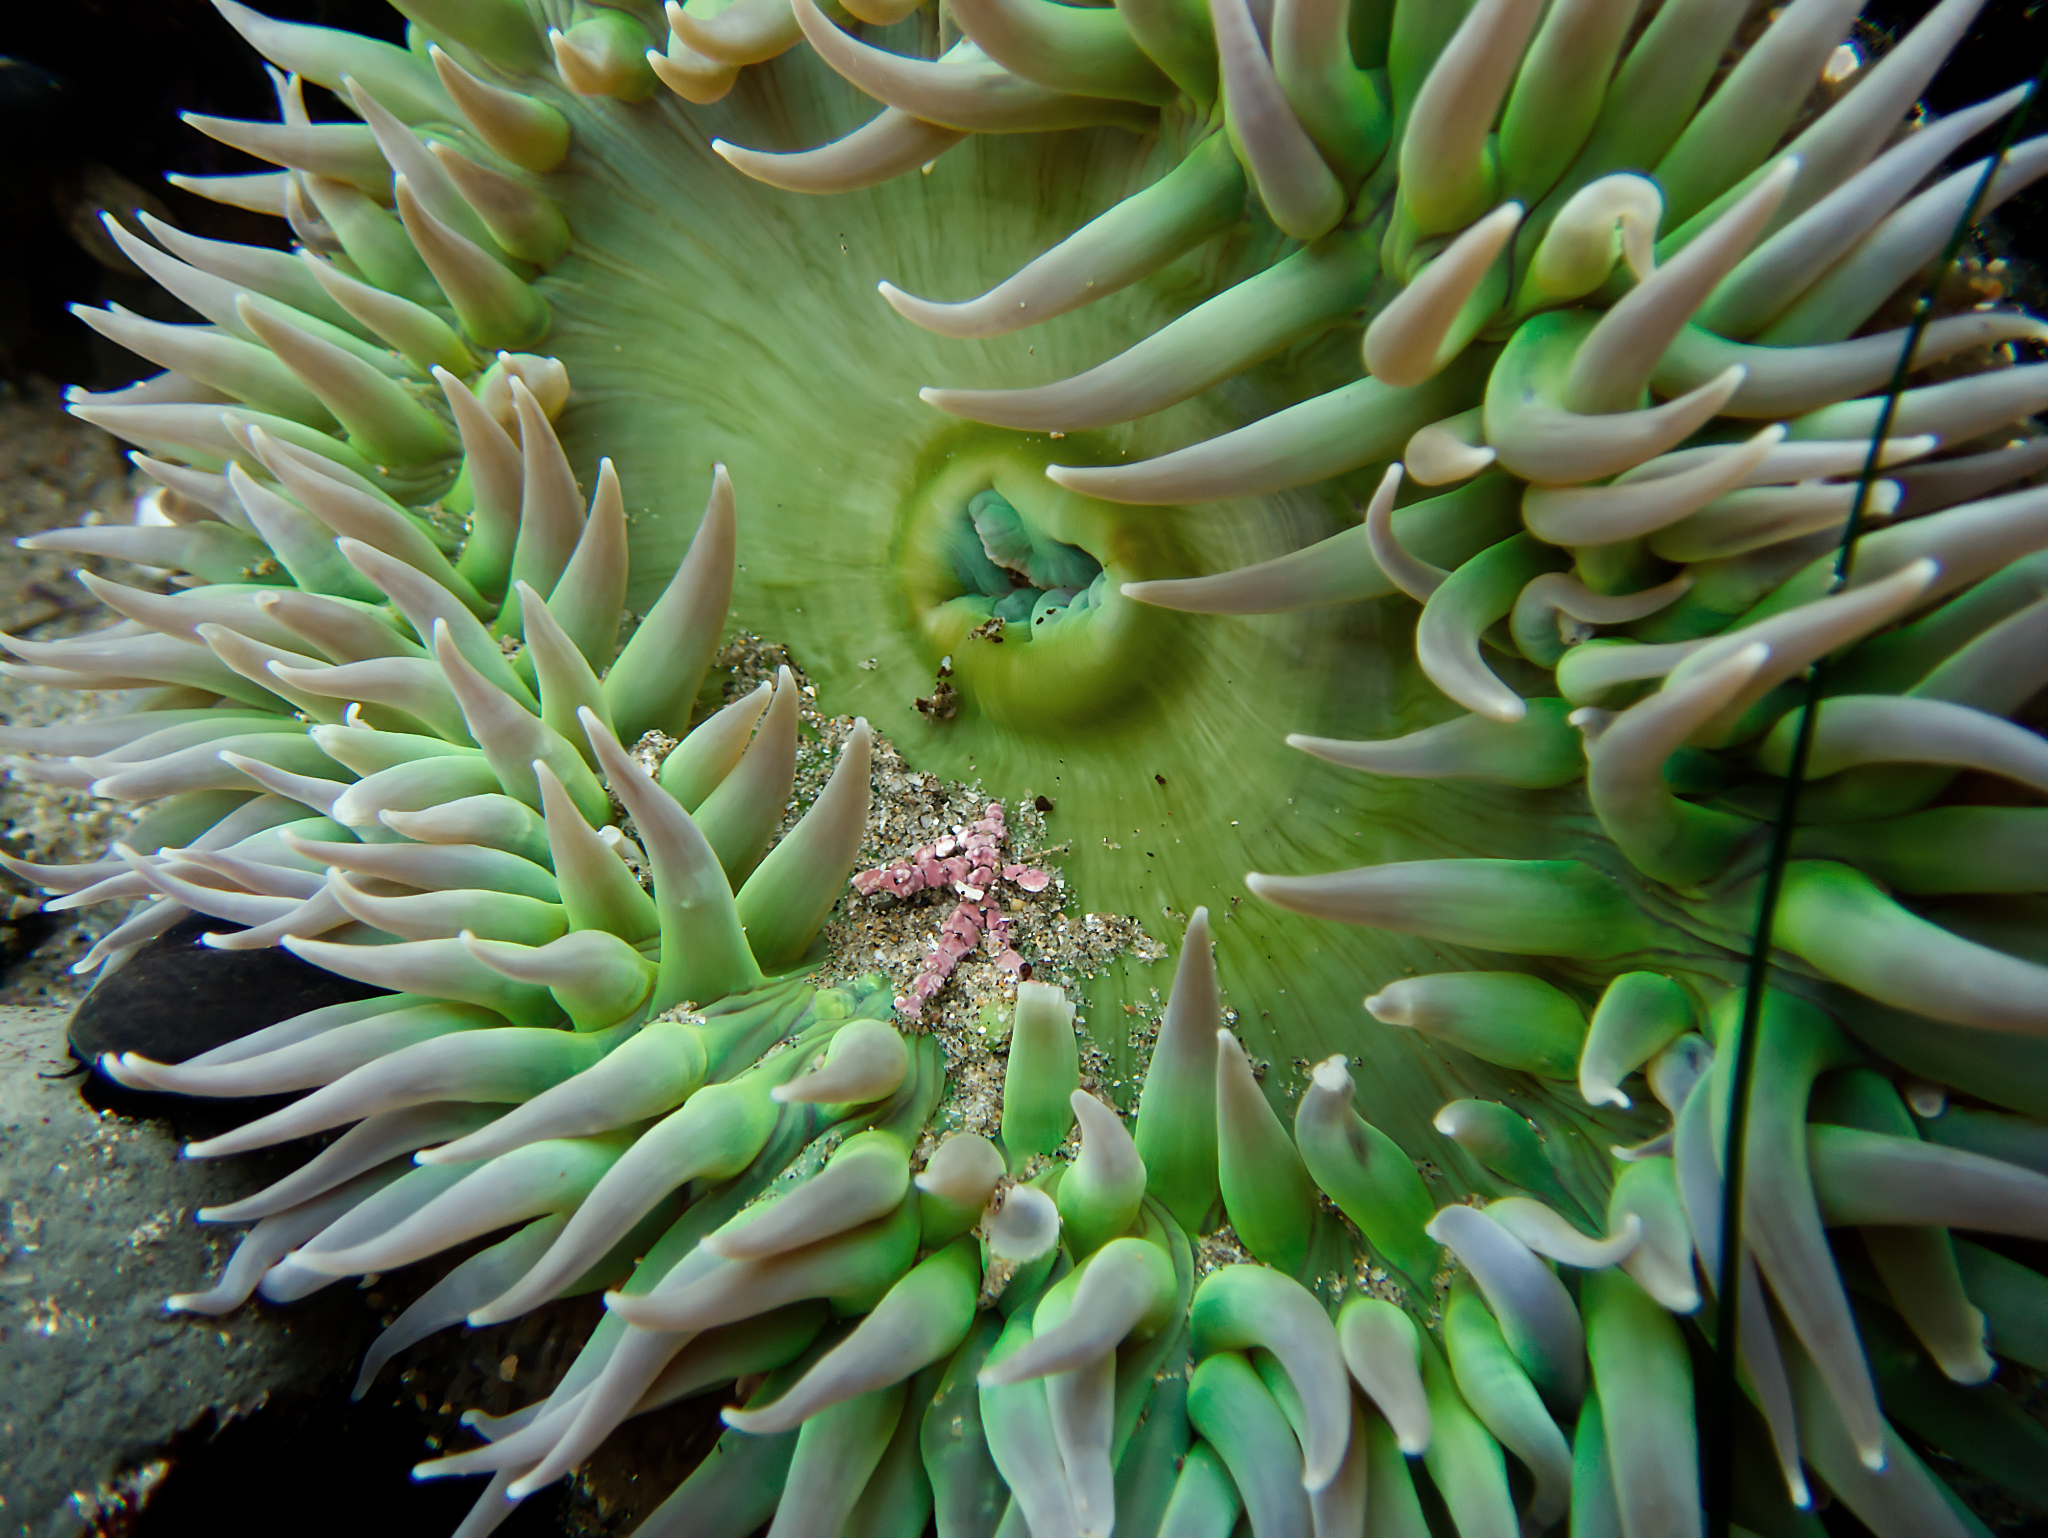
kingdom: Animalia
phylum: Cnidaria
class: Anthozoa
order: Actiniaria
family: Actiniidae
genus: Anthopleura
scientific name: Anthopleura xanthogrammica
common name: Giant green anemone
